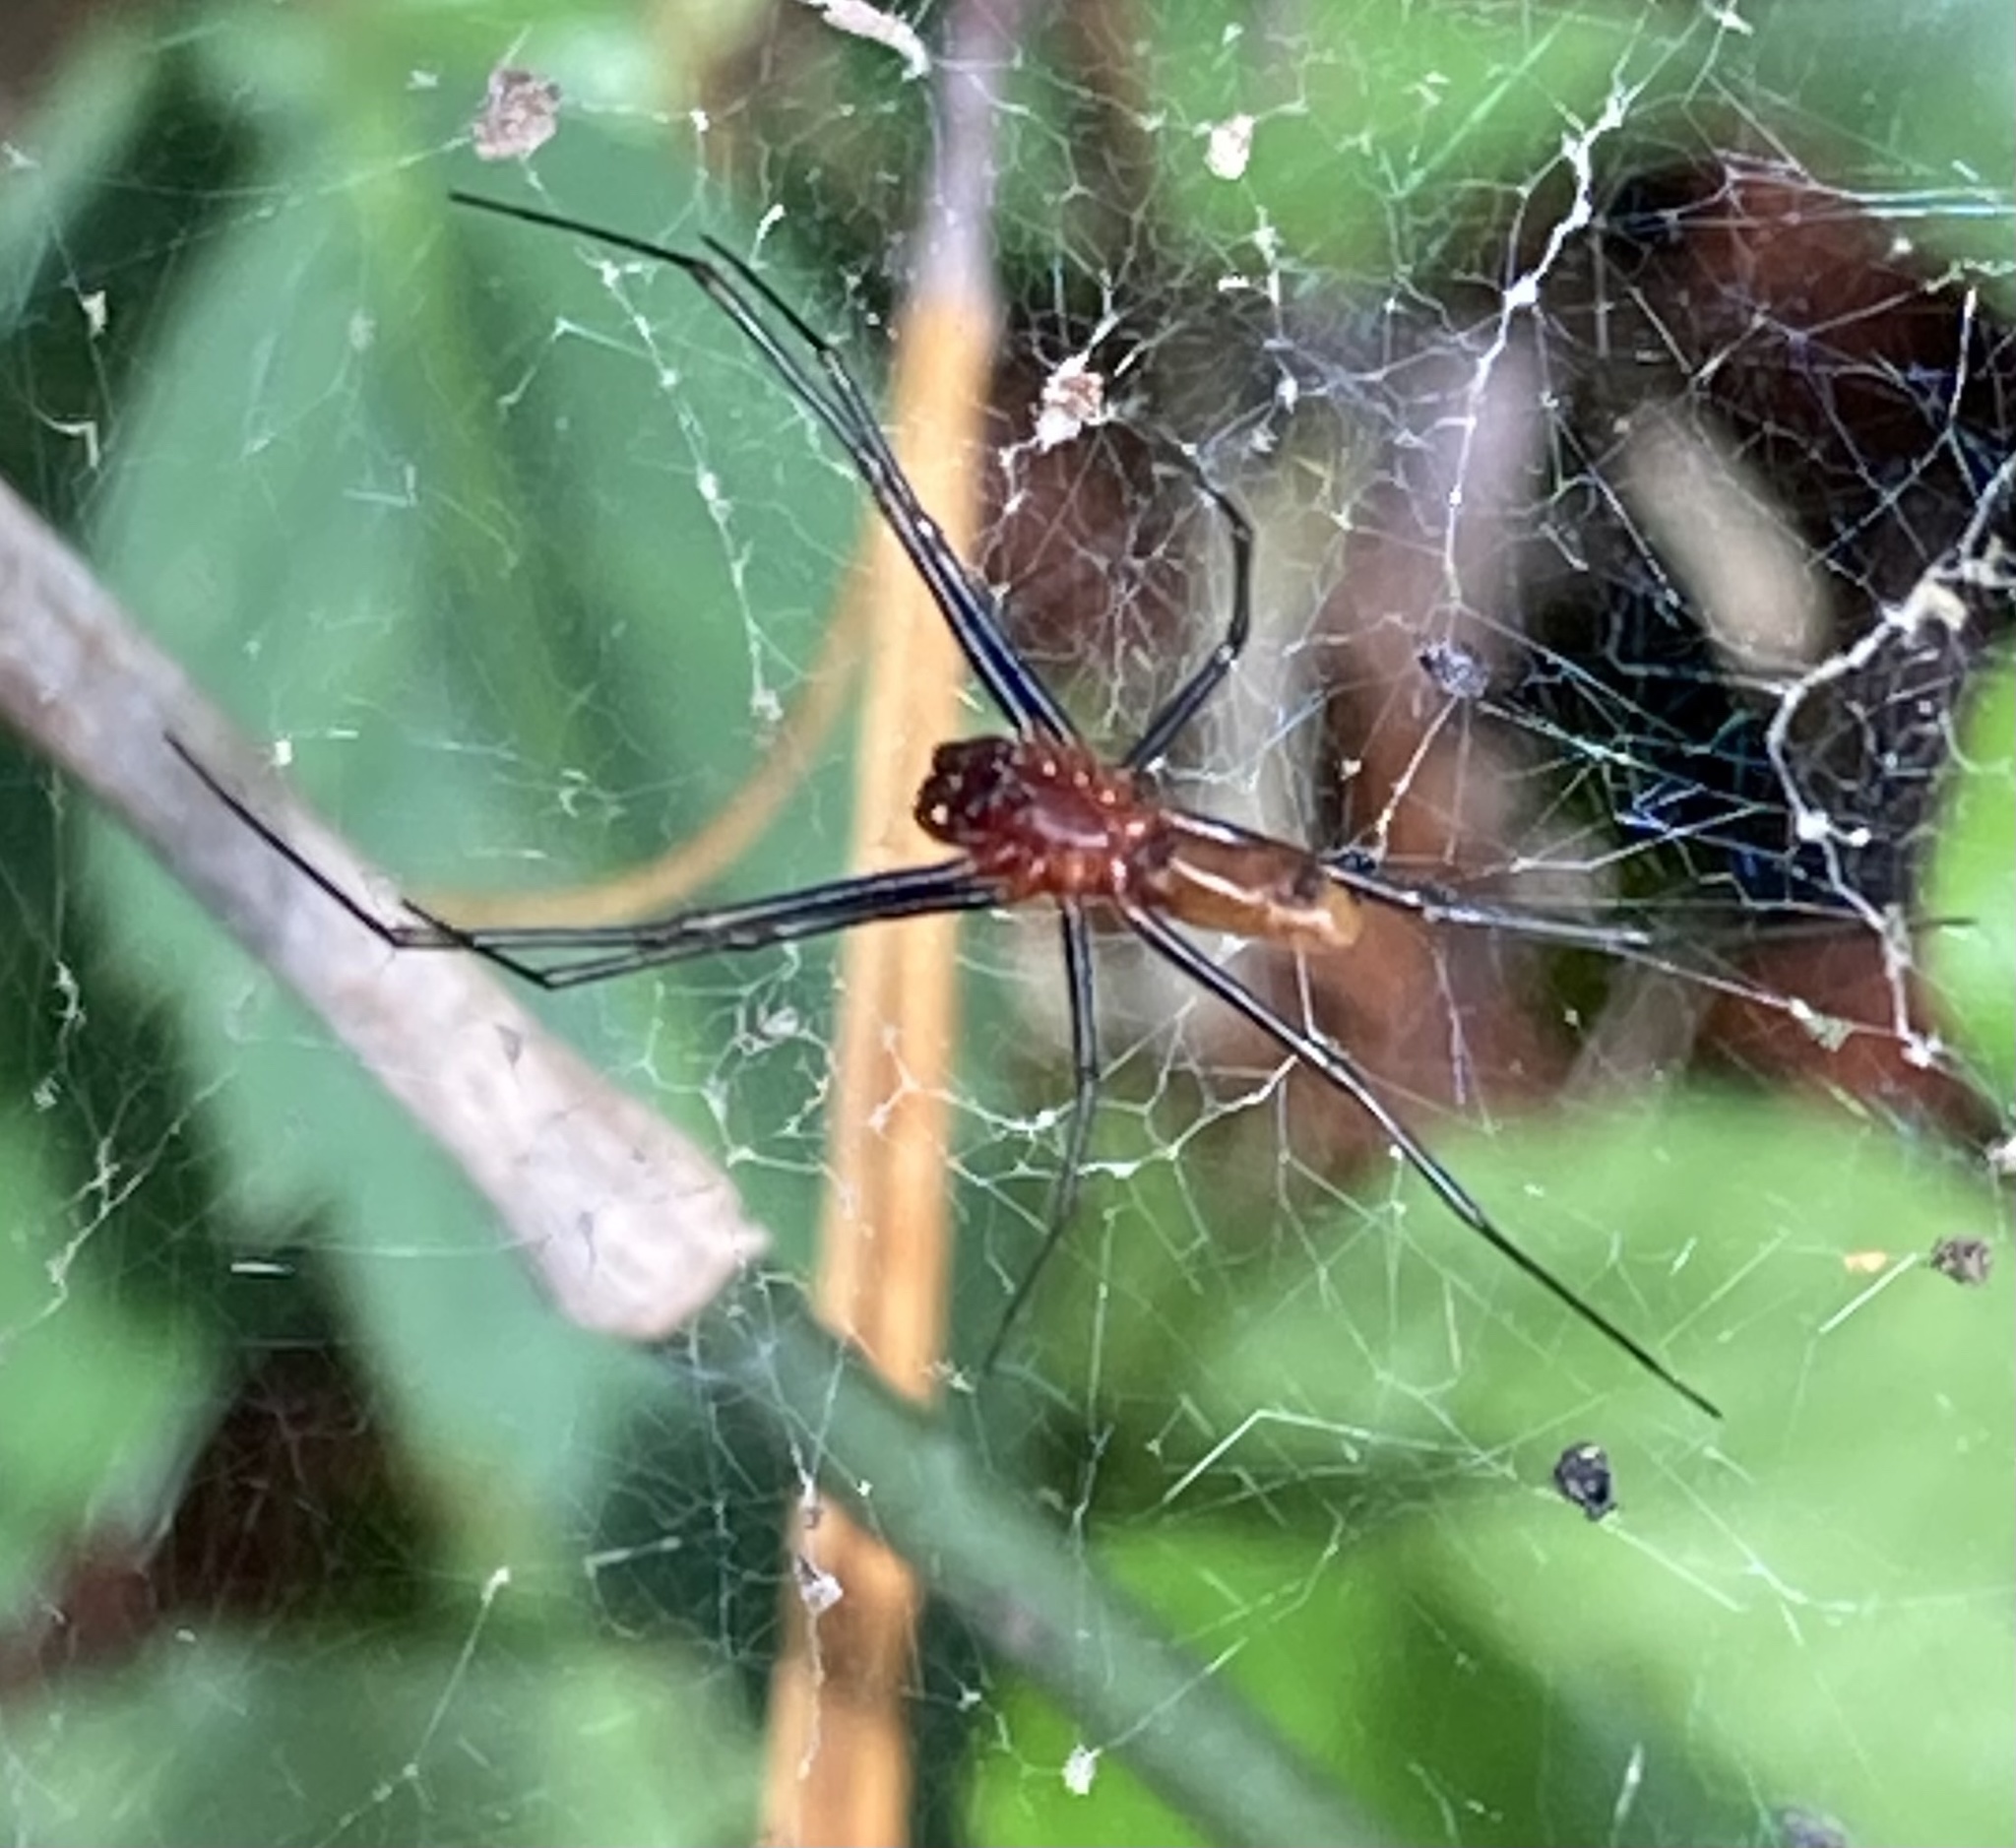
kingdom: Animalia
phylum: Arthropoda
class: Arachnida
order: Araneae
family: Araneidae
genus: Trichonephila
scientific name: Trichonephila clavipes
